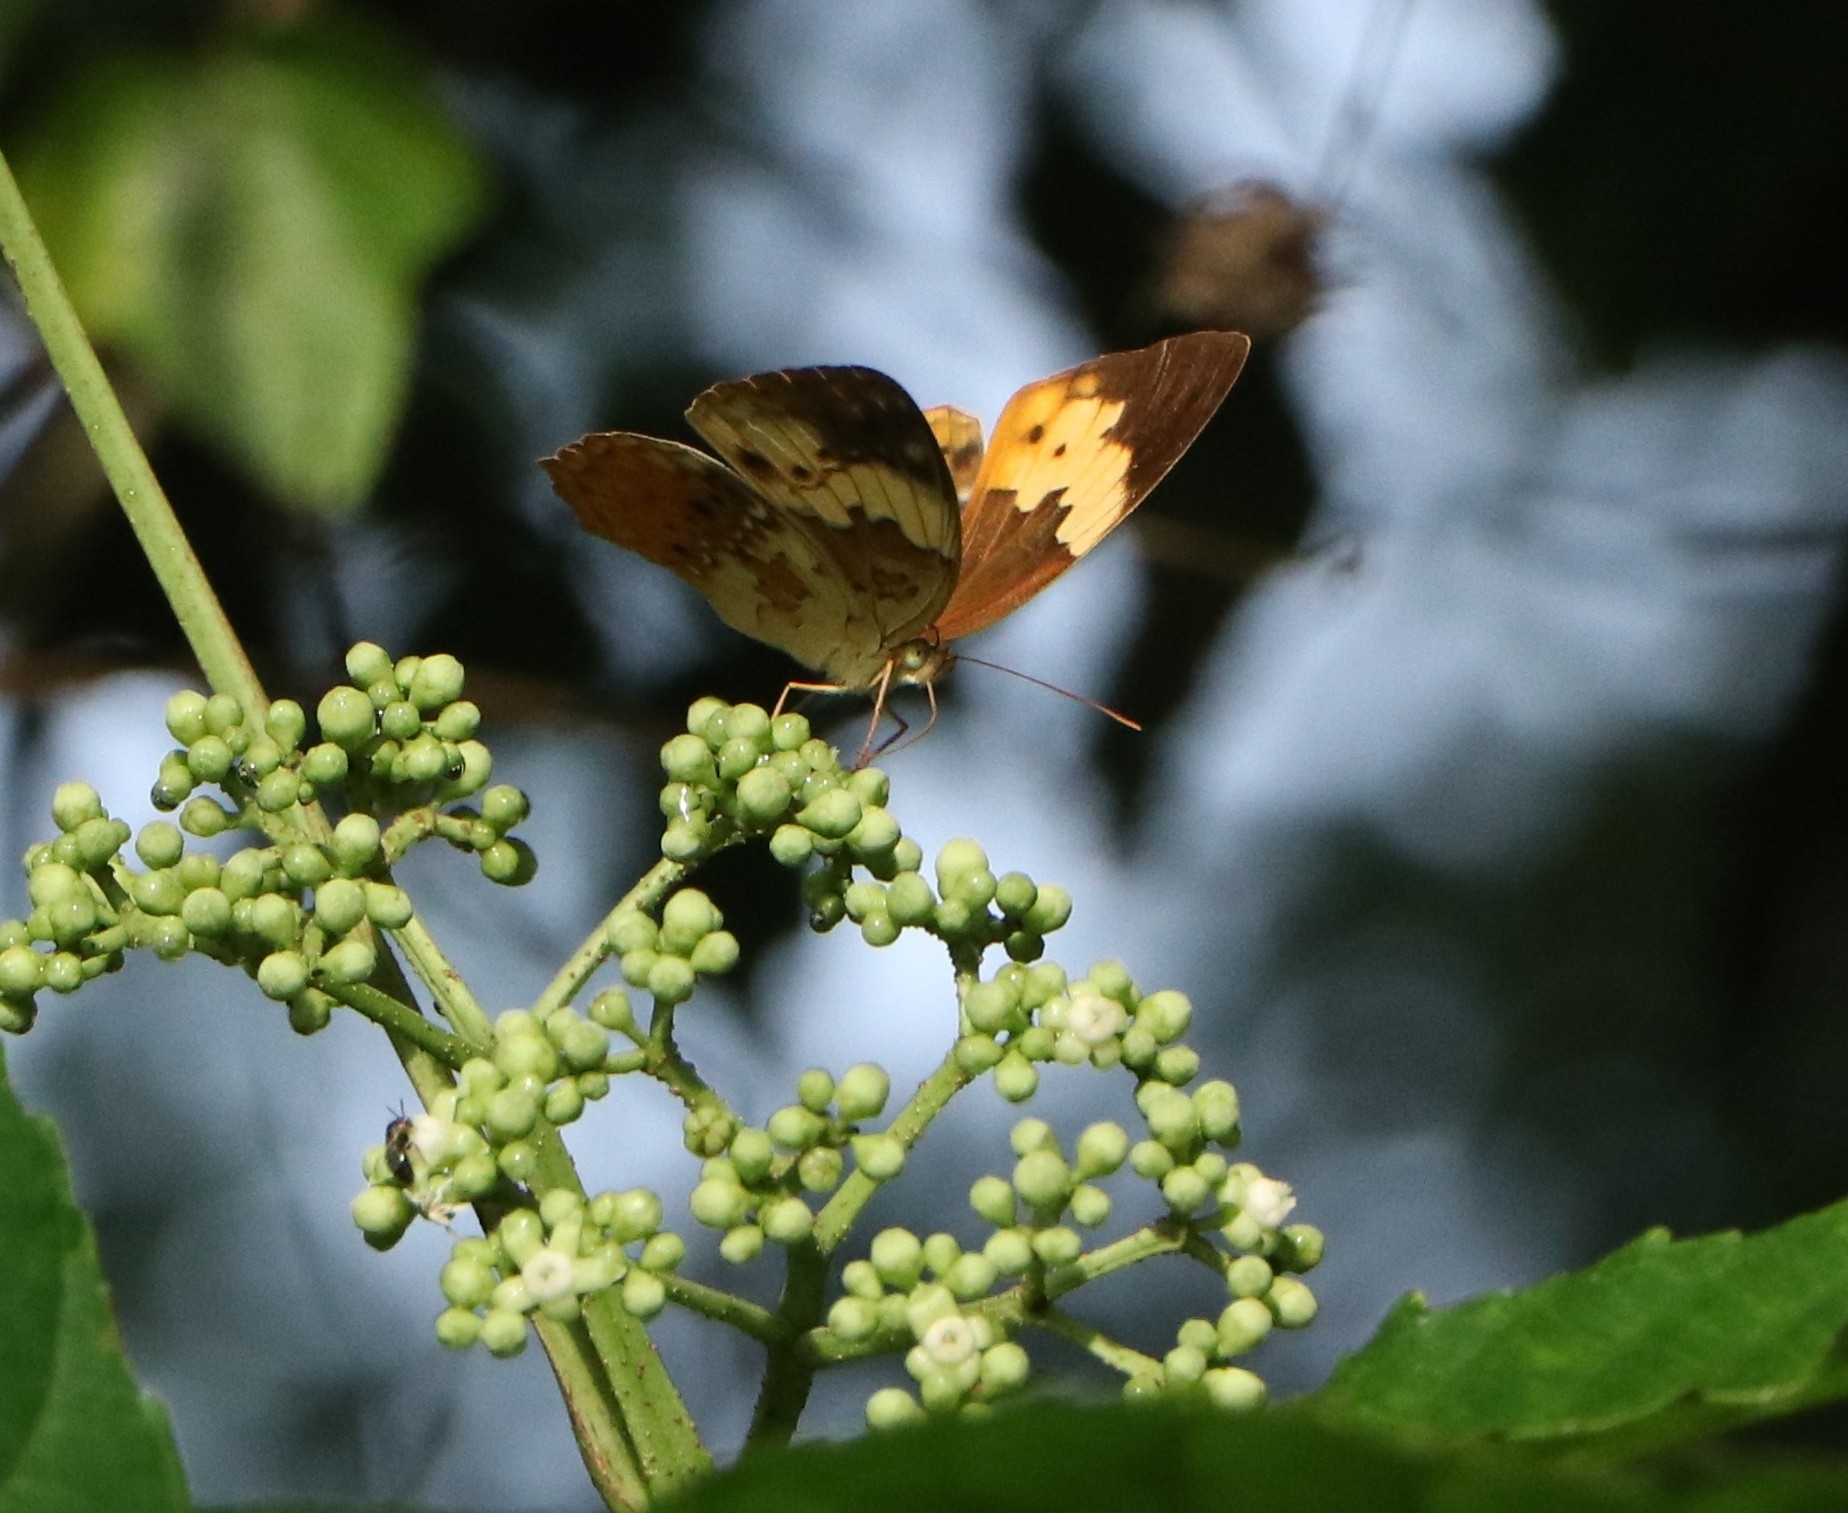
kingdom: Animalia
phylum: Arthropoda
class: Insecta
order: Lepidoptera
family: Nymphalidae
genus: Cupha
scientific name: Cupha erymanthis
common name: Rustic
